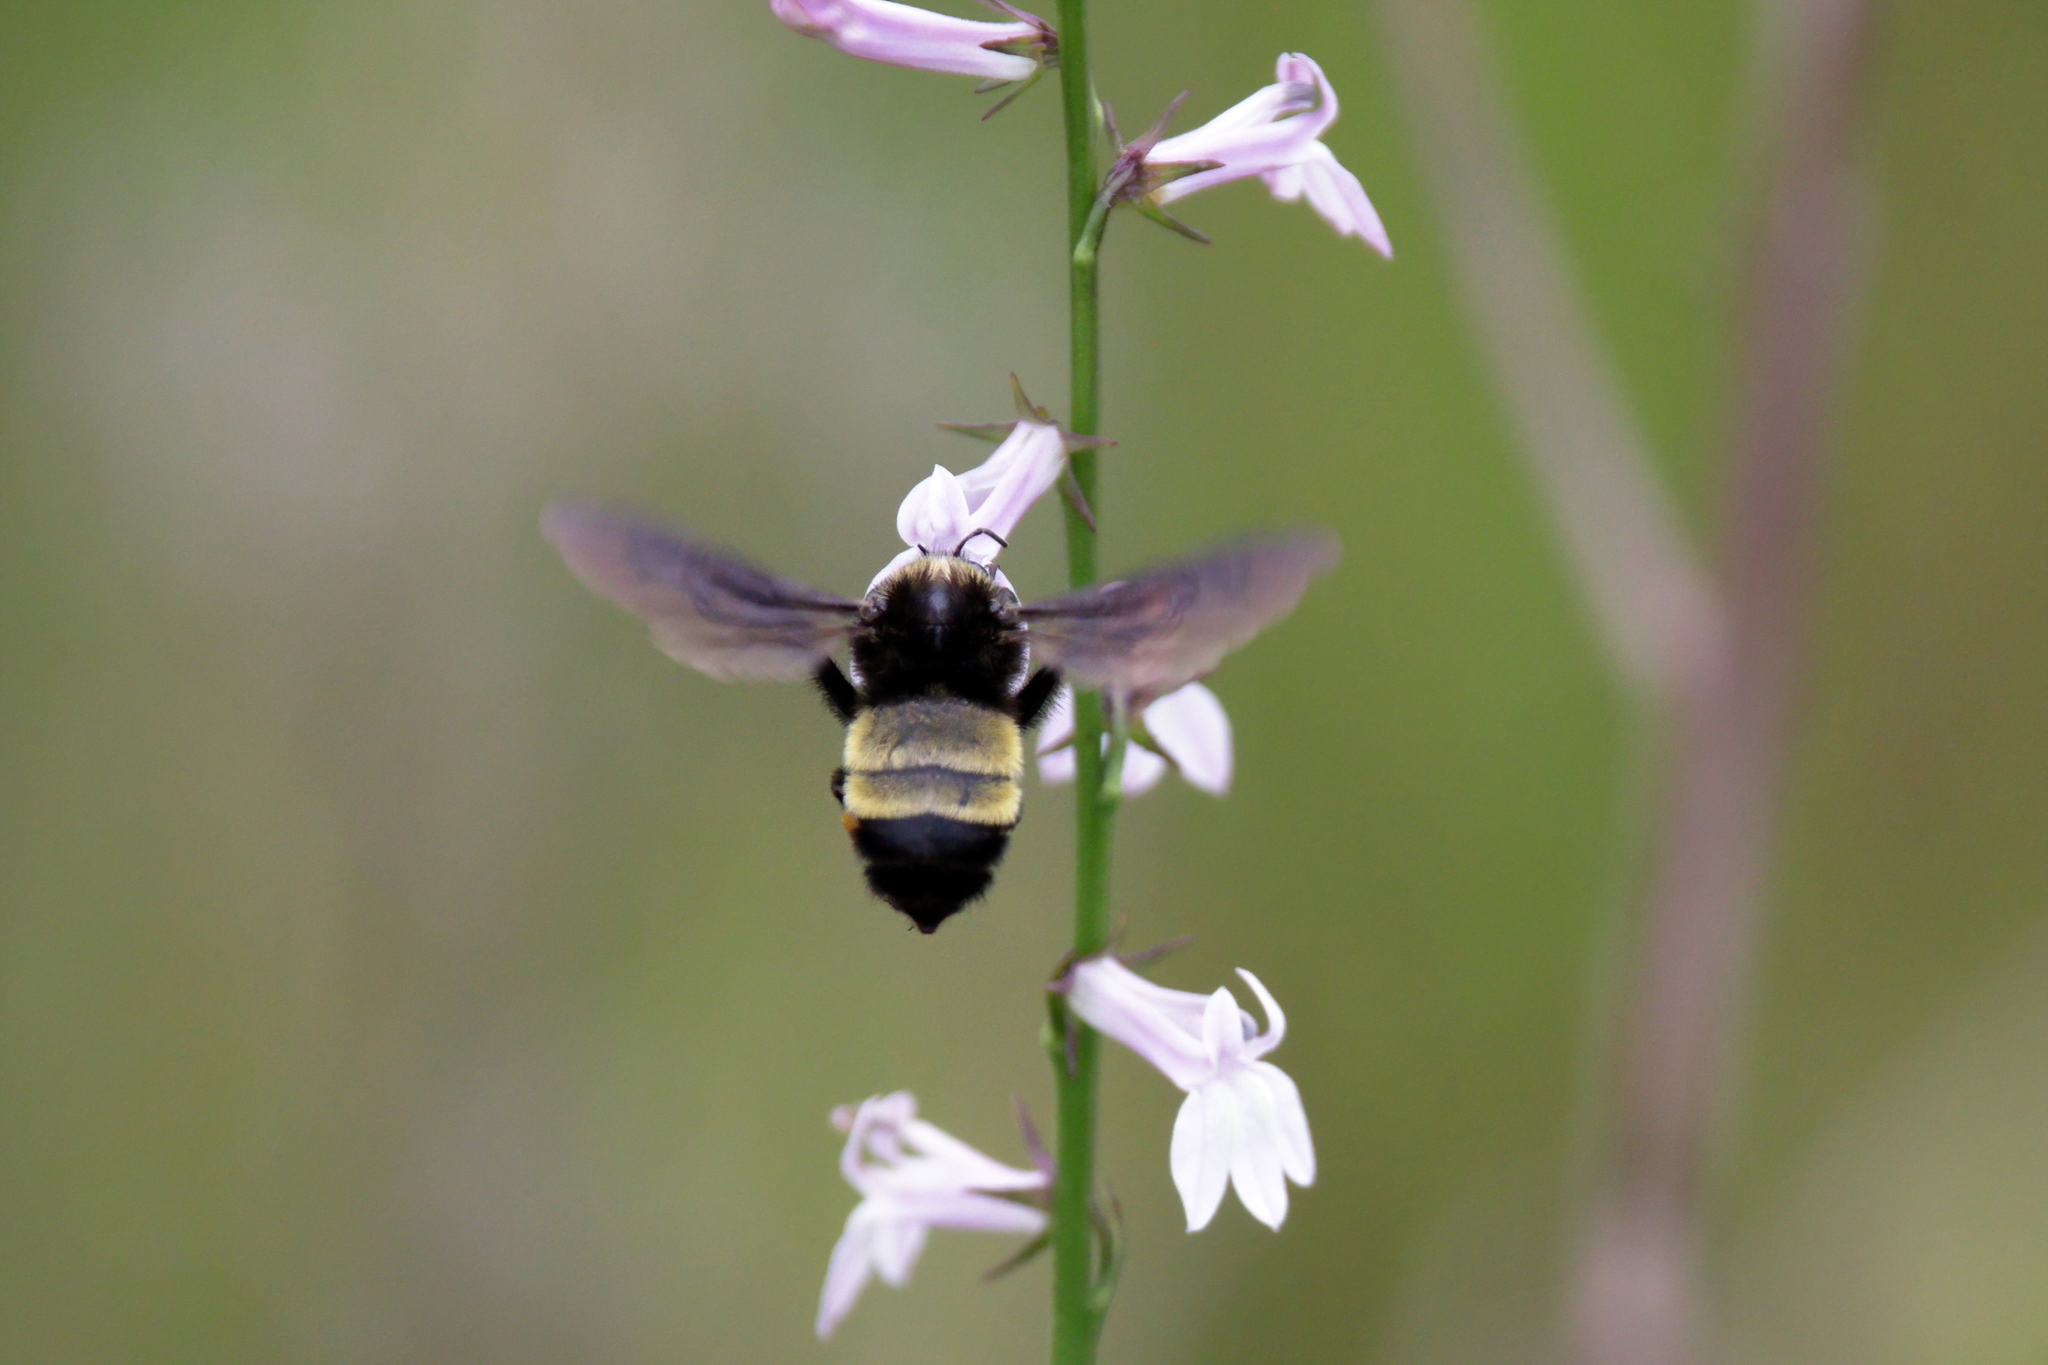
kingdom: Animalia
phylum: Arthropoda
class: Insecta
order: Hymenoptera
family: Apidae
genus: Bombus
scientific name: Bombus pensylvanicus
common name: Bumble bee
